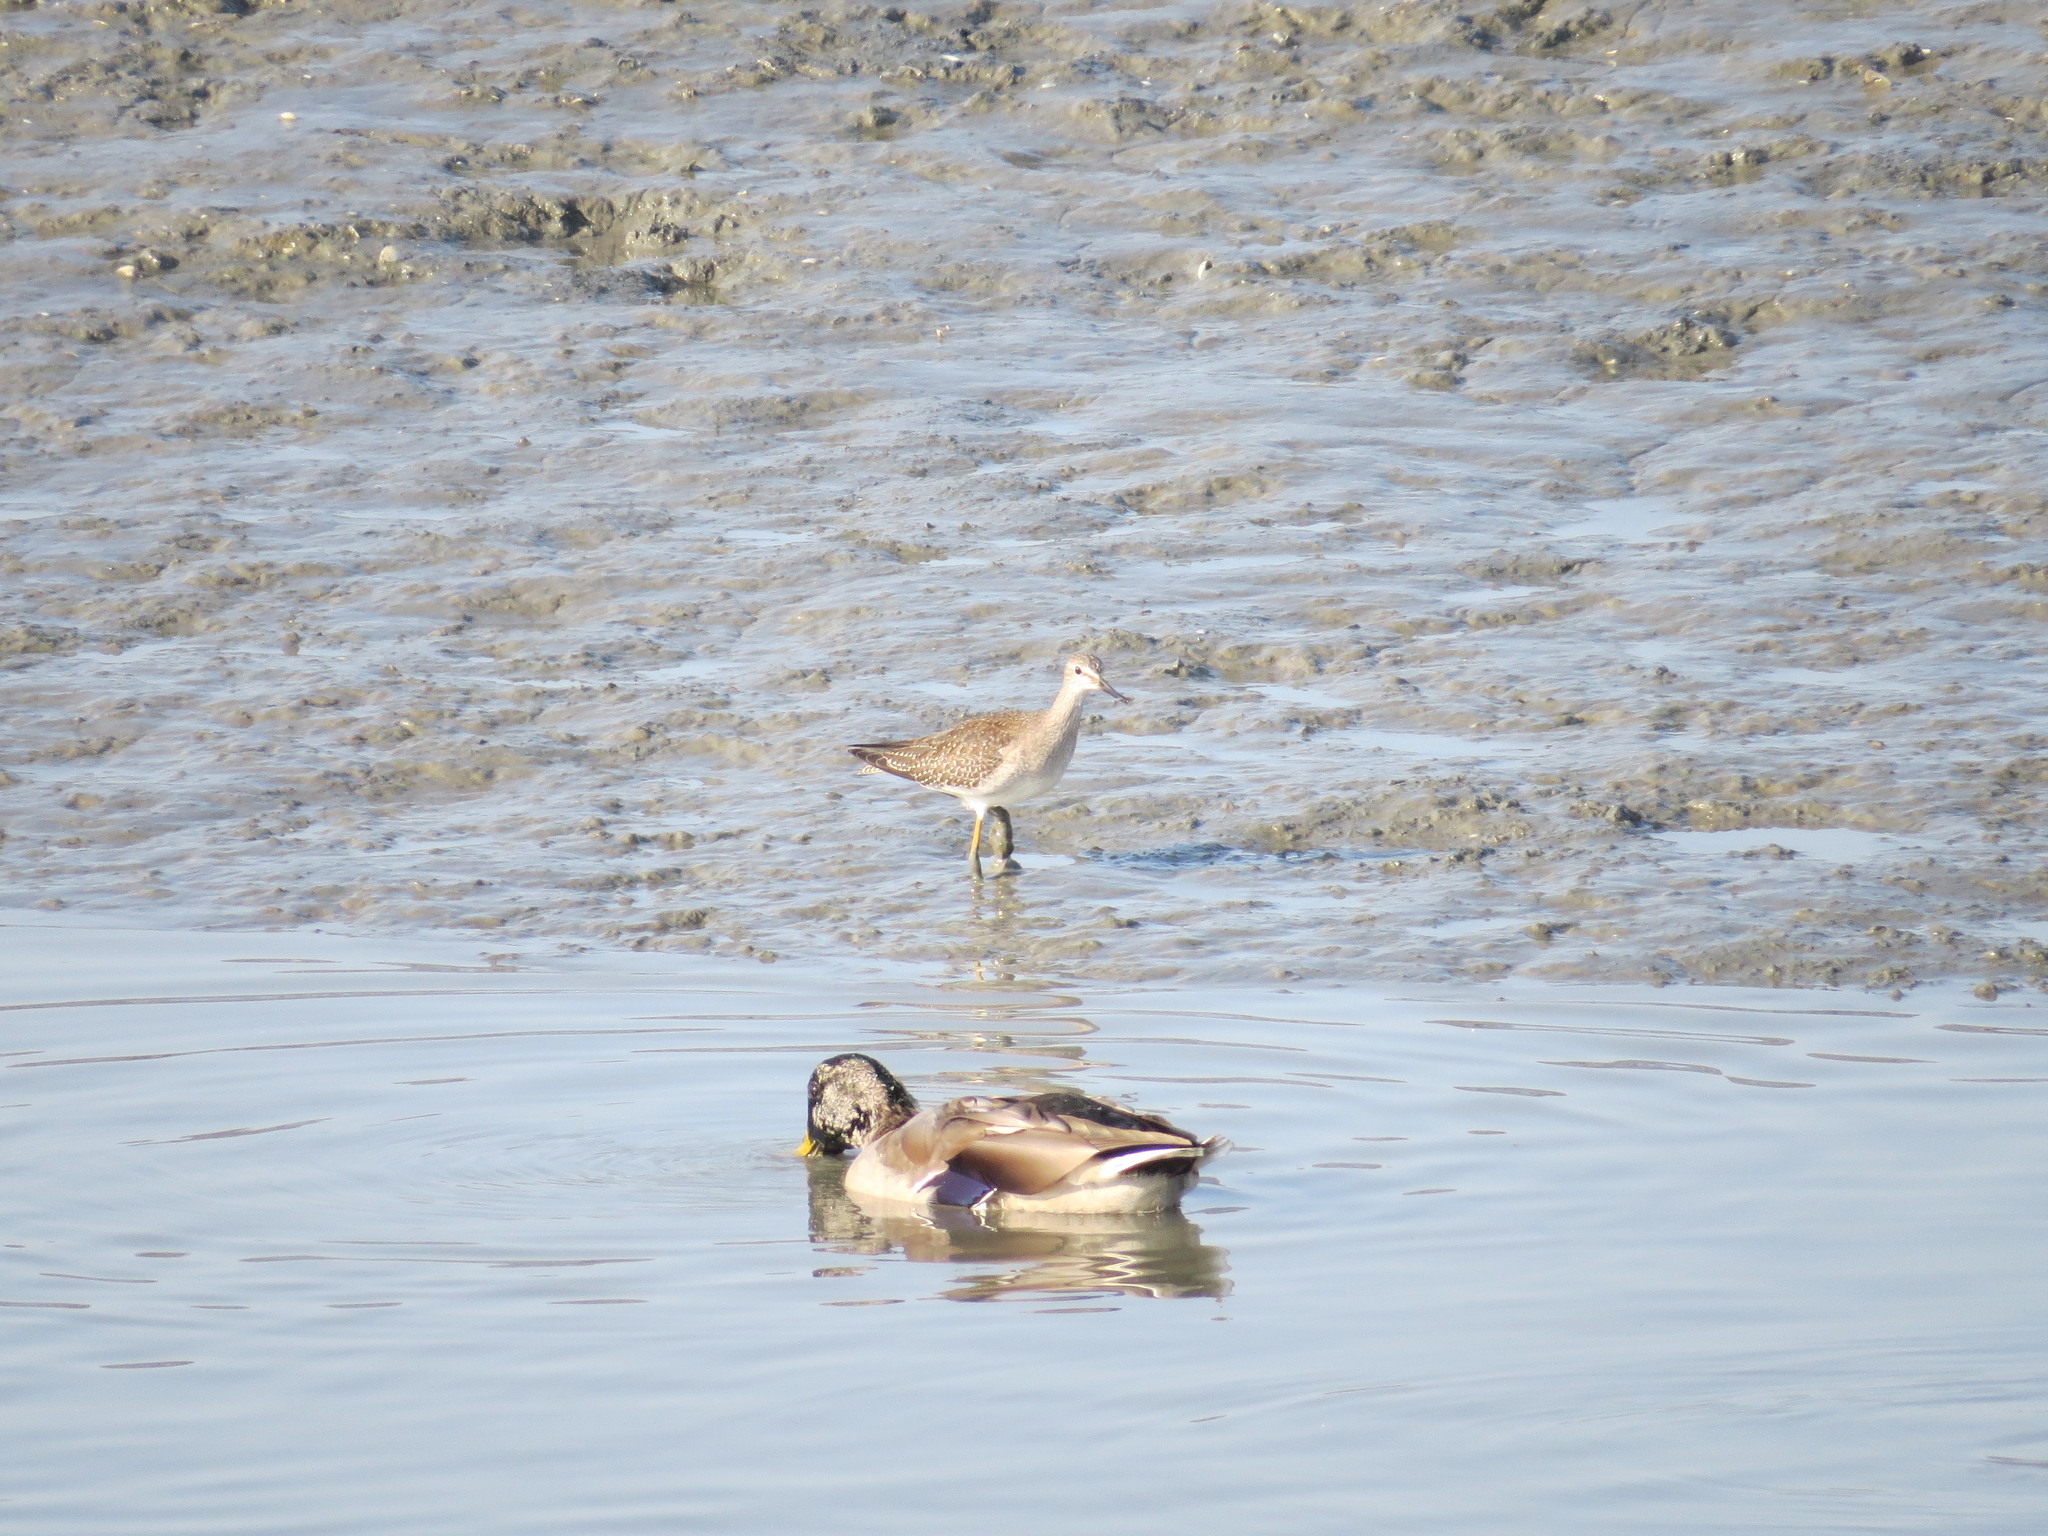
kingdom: Animalia
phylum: Chordata
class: Aves
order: Charadriiformes
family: Scolopacidae
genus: Tringa
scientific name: Tringa flavipes
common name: Lesser yellowlegs
